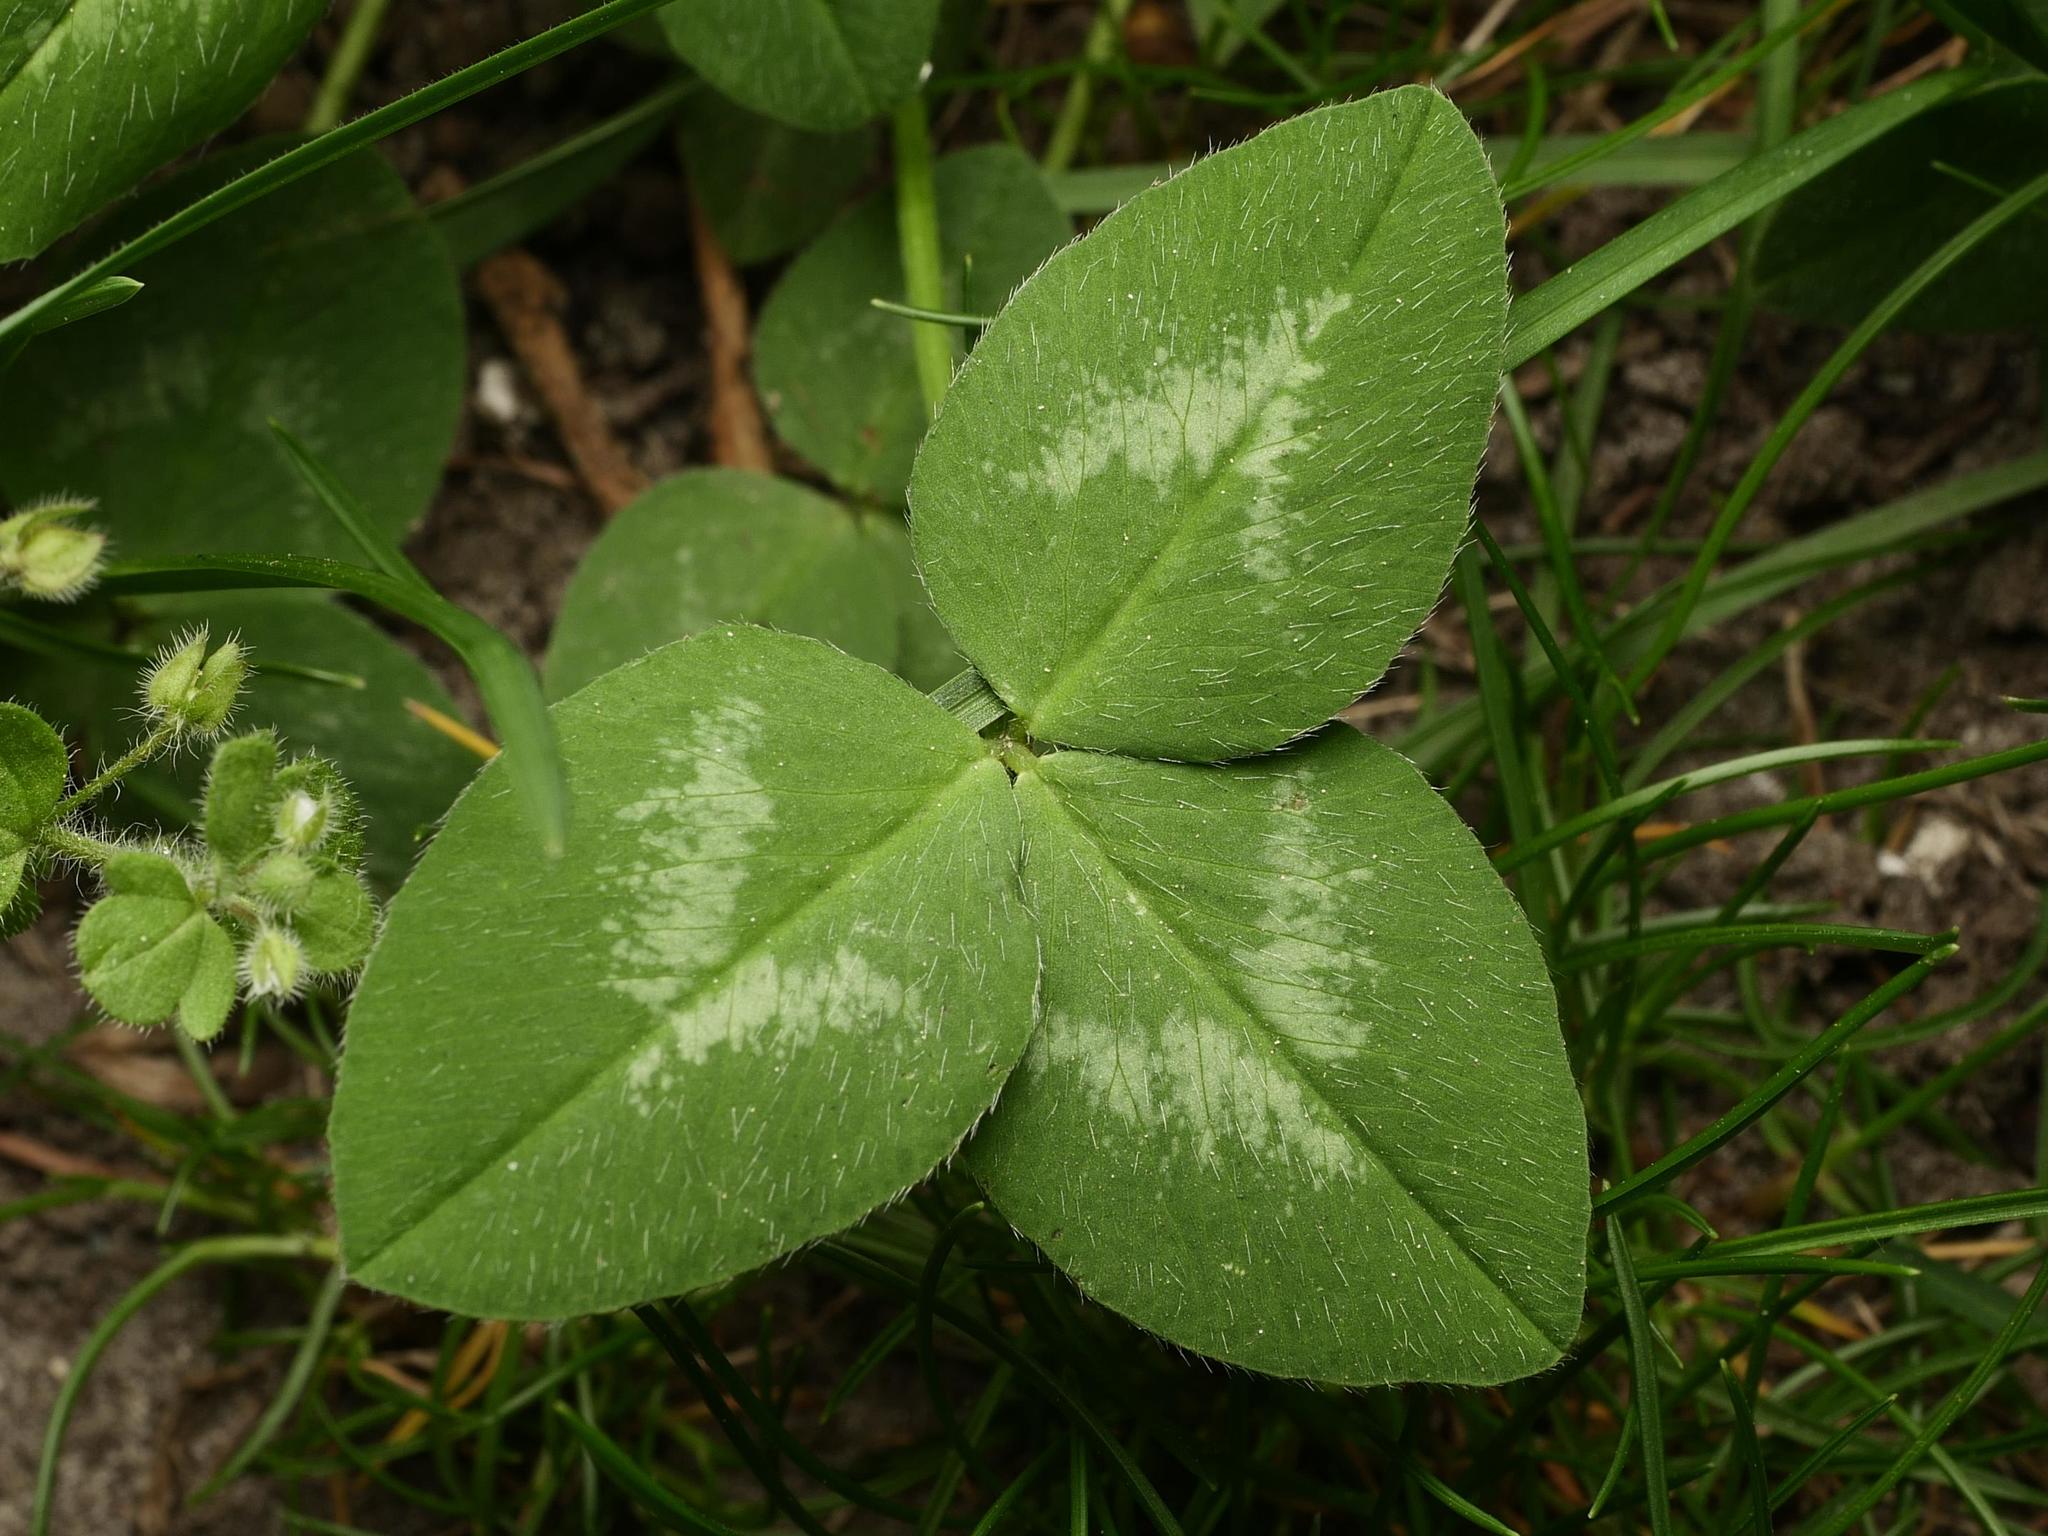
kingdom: Plantae
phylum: Tracheophyta
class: Magnoliopsida
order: Fabales
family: Fabaceae
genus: Trifolium
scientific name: Trifolium pratense
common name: Red clover
